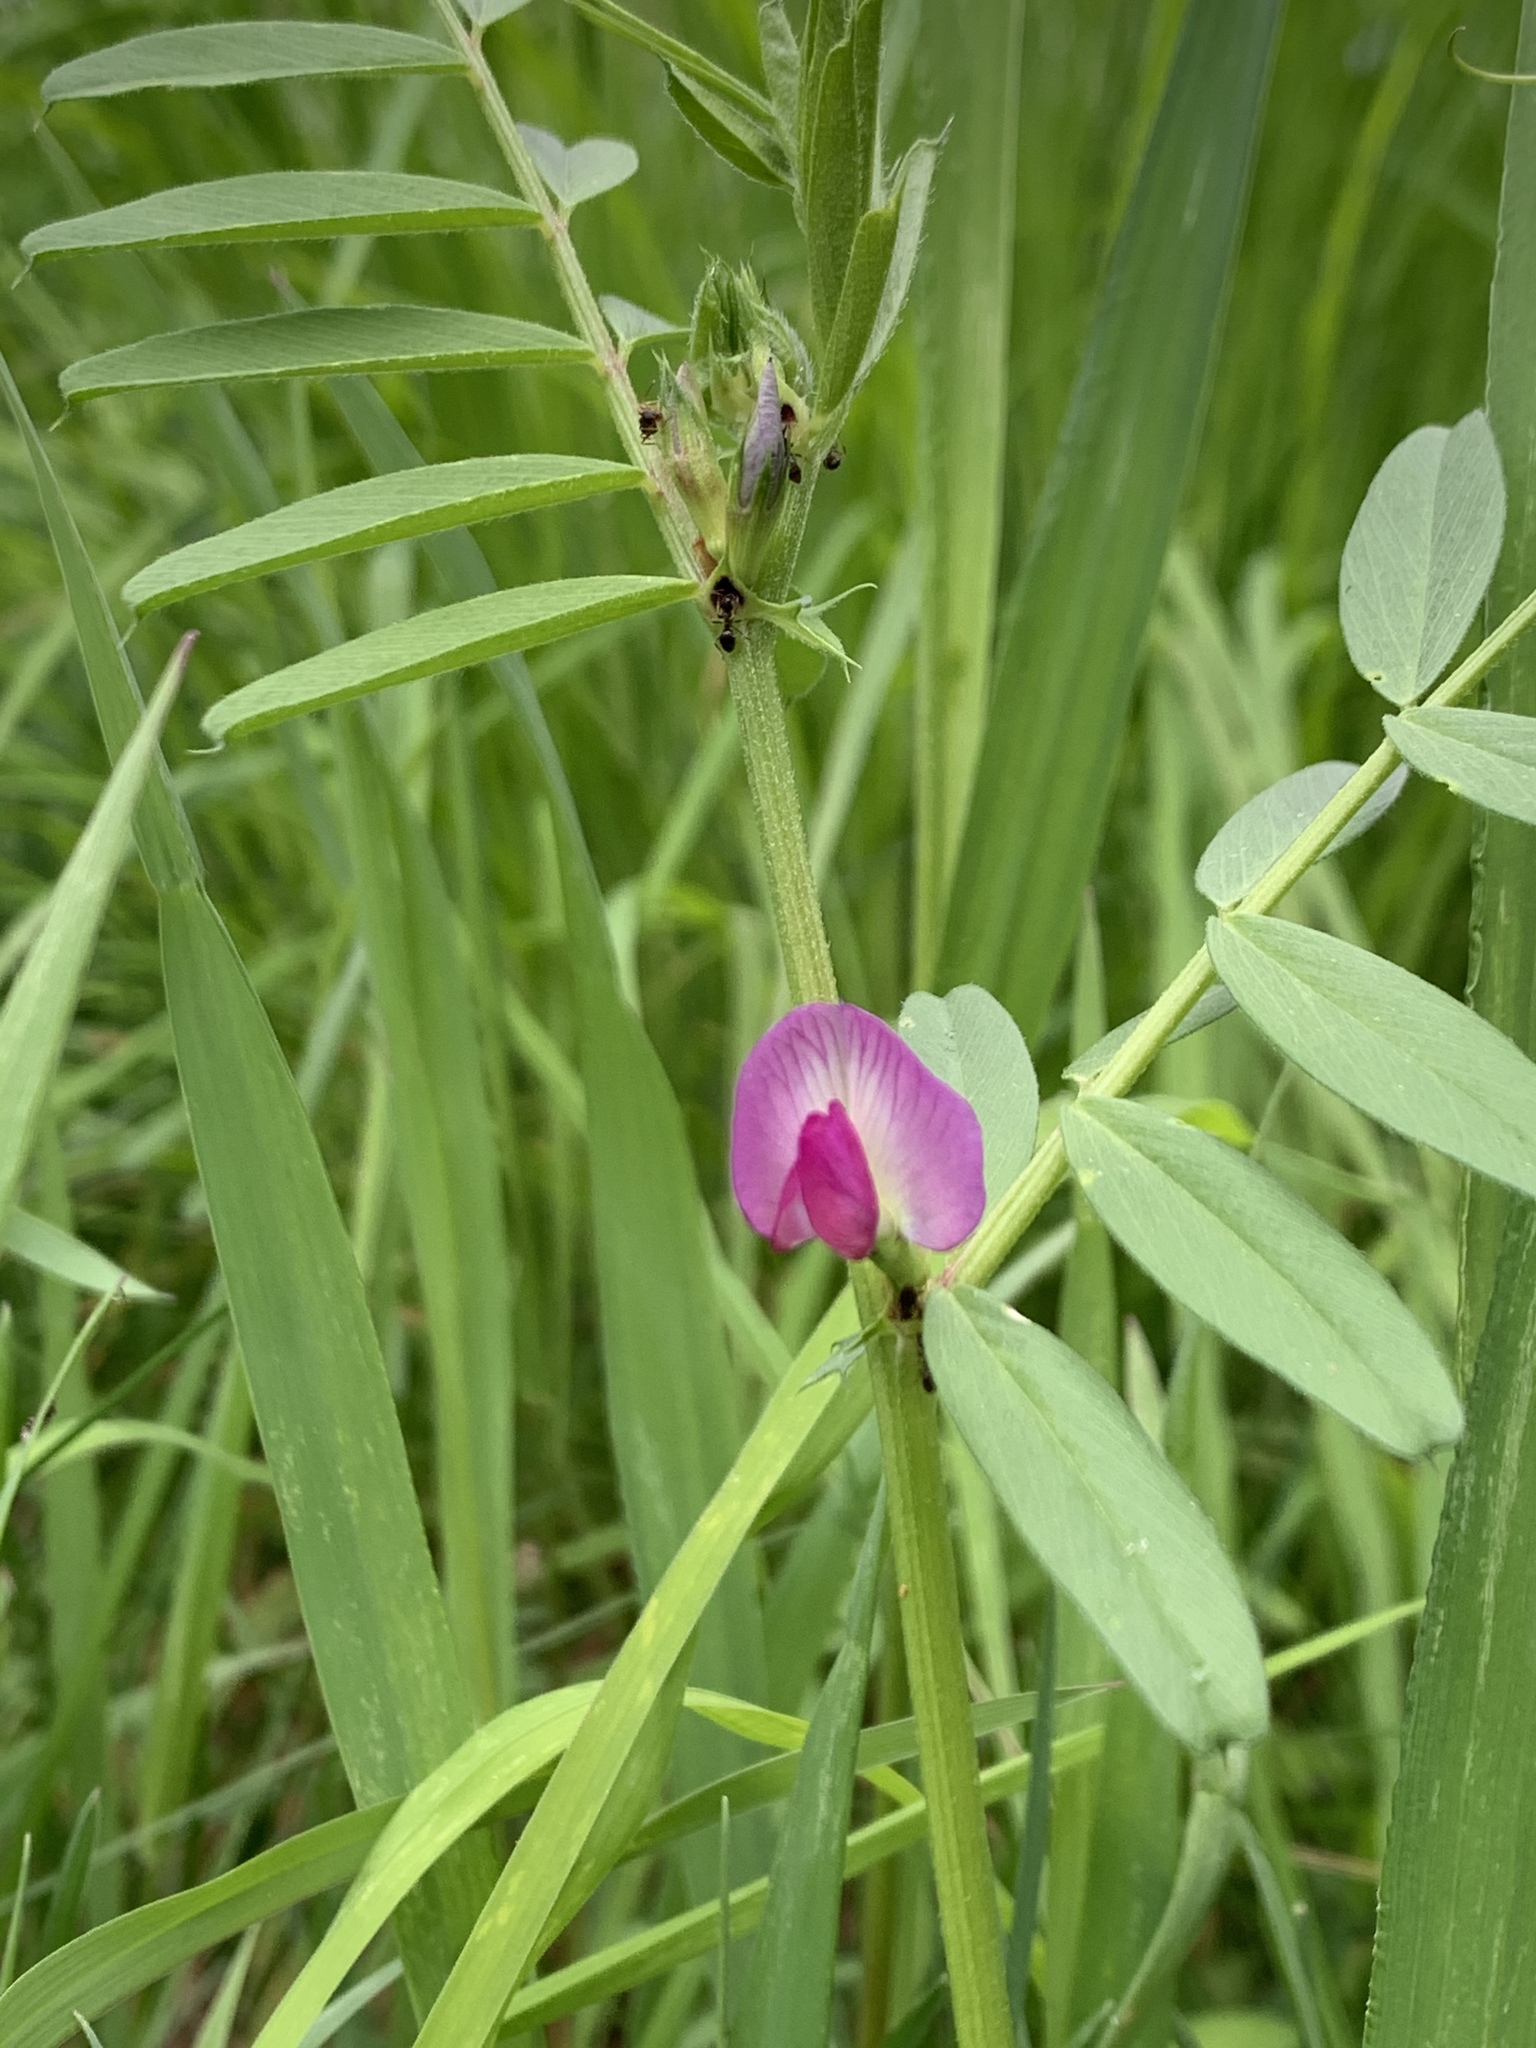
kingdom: Plantae
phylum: Tracheophyta
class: Magnoliopsida
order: Fabales
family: Fabaceae
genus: Vicia
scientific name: Vicia sativa
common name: Garden vetch
